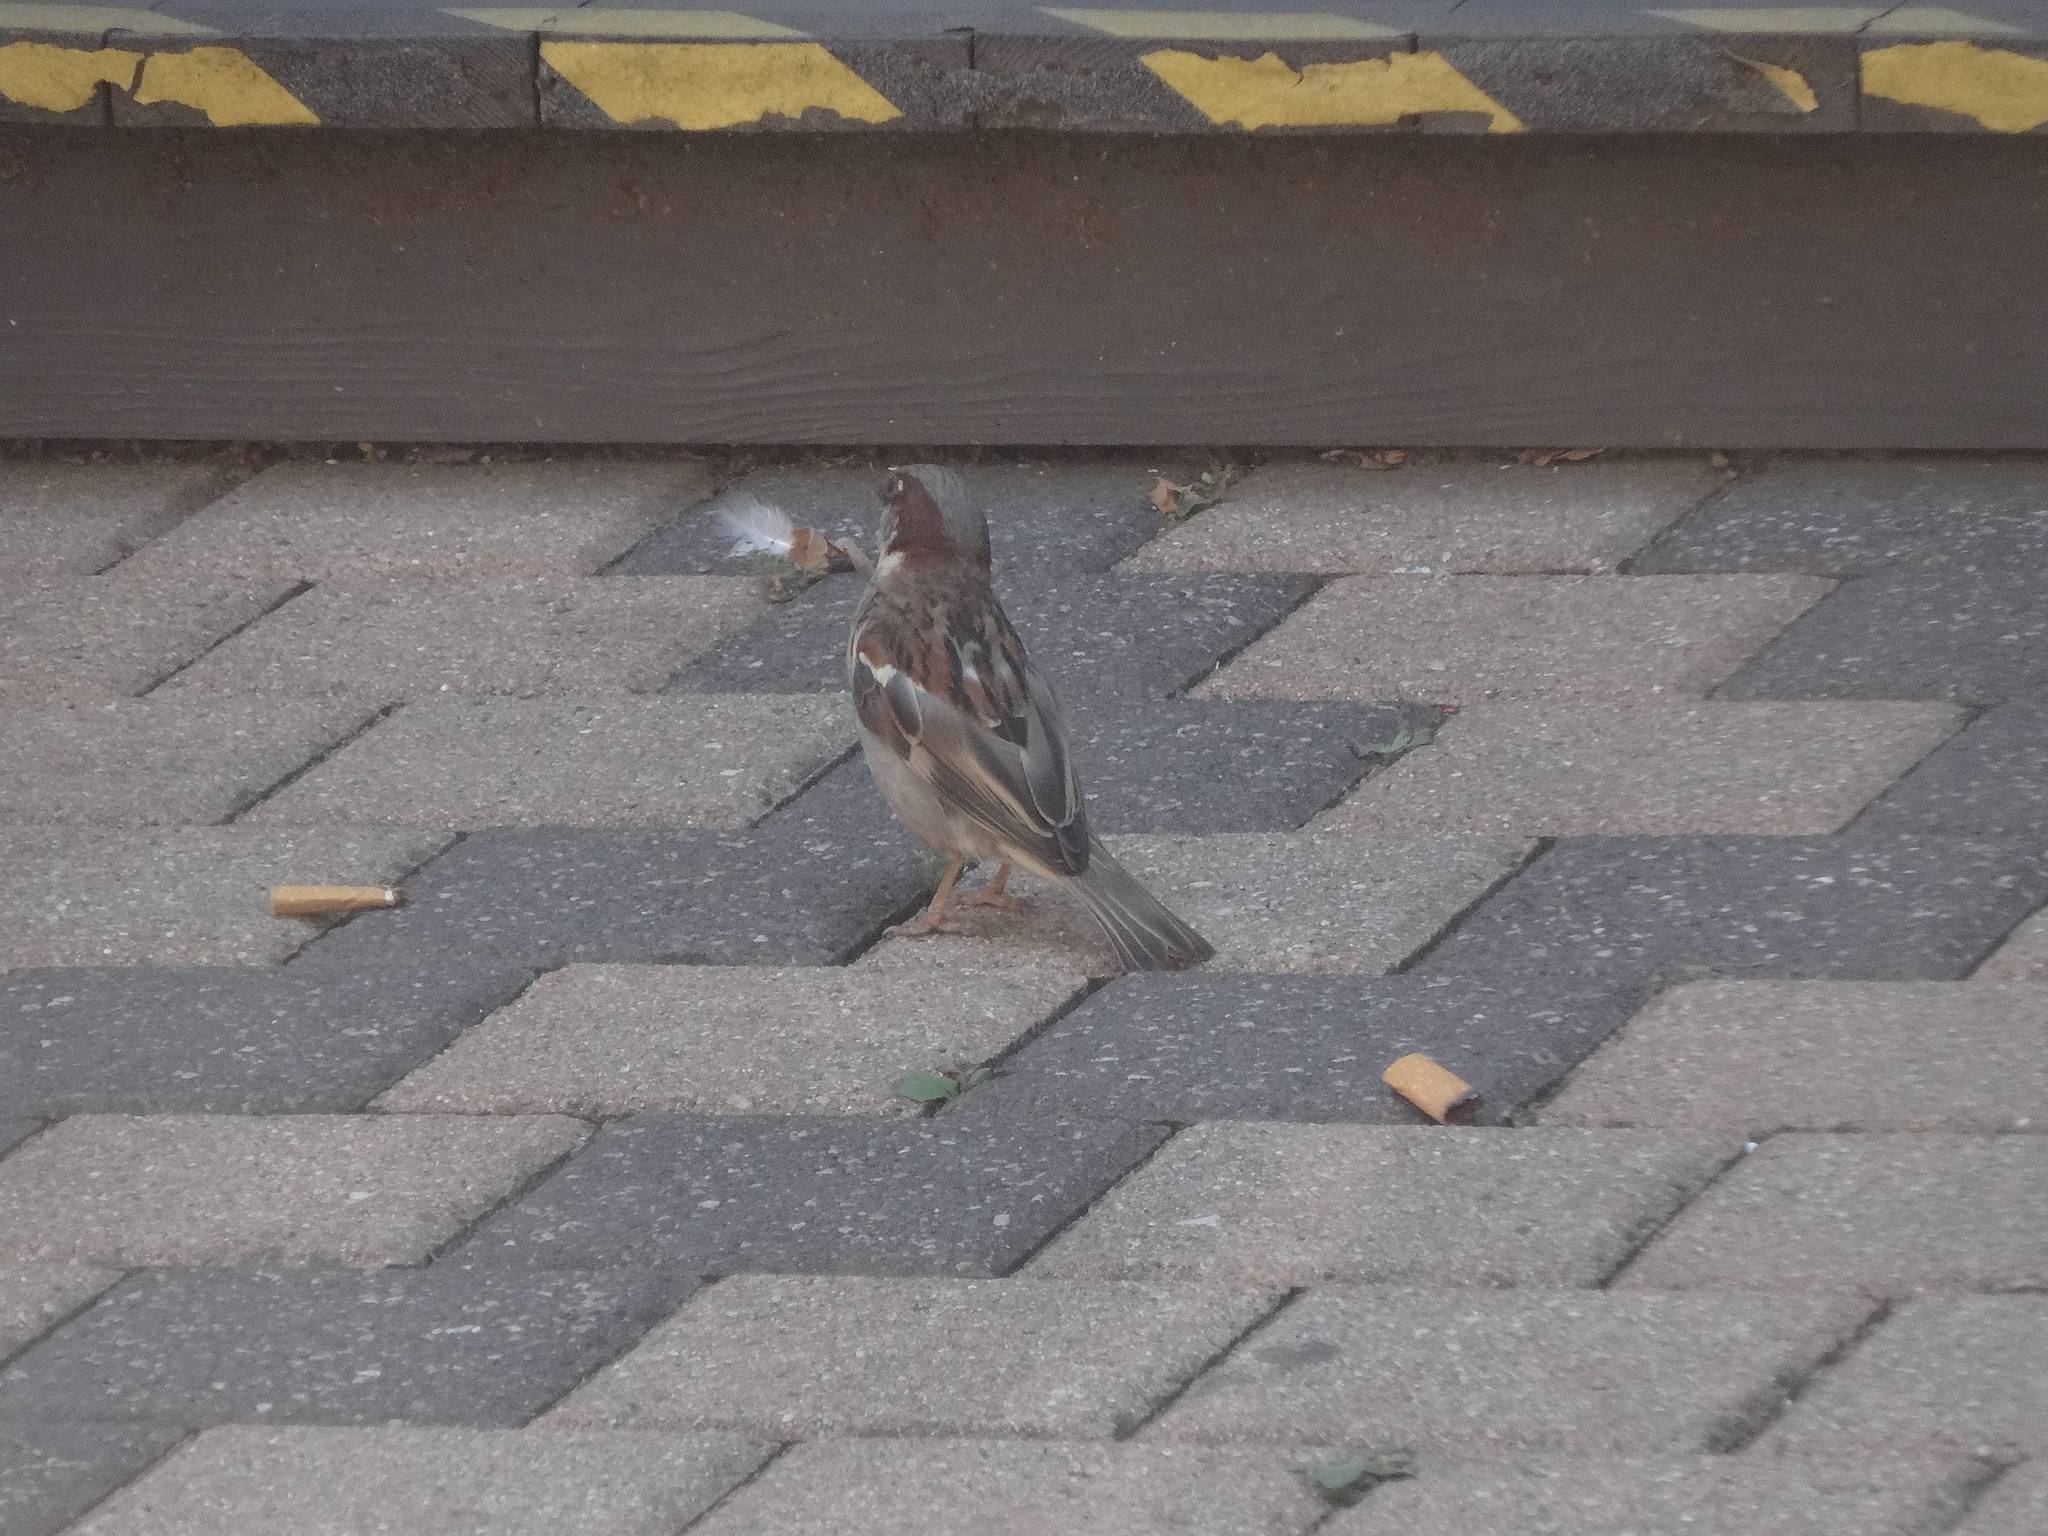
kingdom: Animalia
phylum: Chordata
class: Aves
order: Passeriformes
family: Passeridae
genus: Passer
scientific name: Passer domesticus
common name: House sparrow
